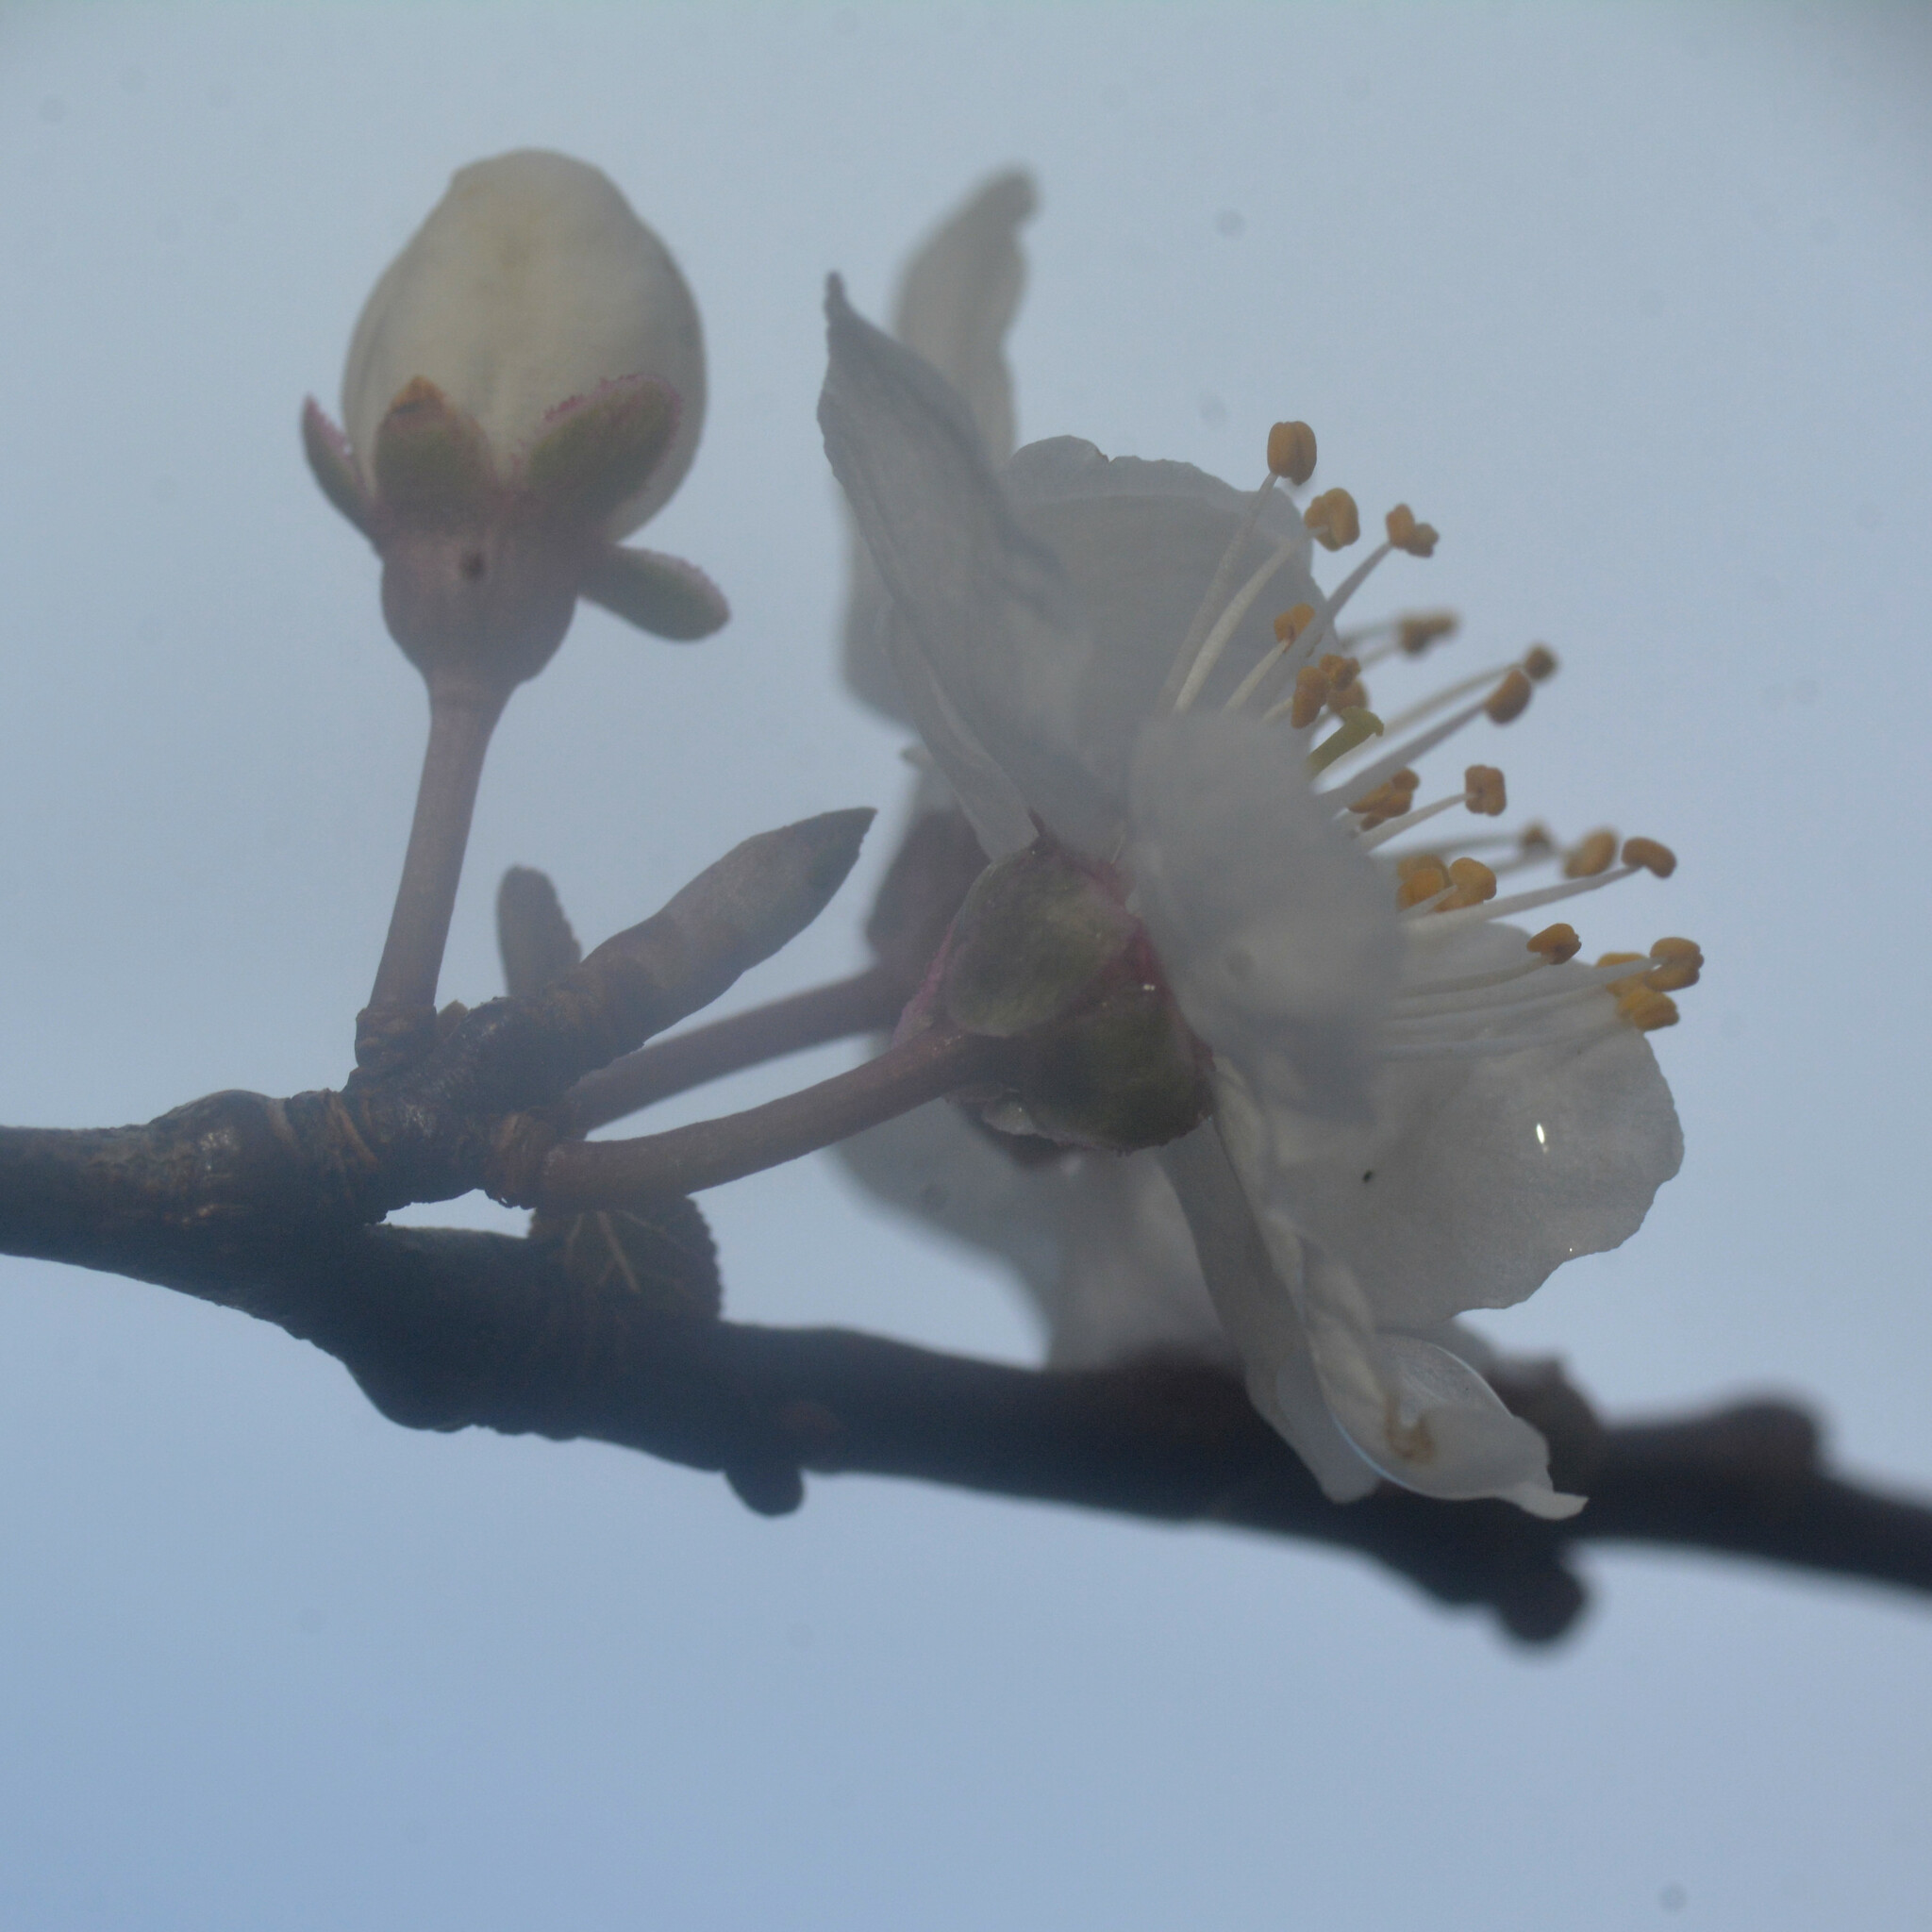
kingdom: Plantae
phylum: Tracheophyta
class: Magnoliopsida
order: Rosales
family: Rosaceae
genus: Prunus
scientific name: Prunus cerasifera
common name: Cherry plum
